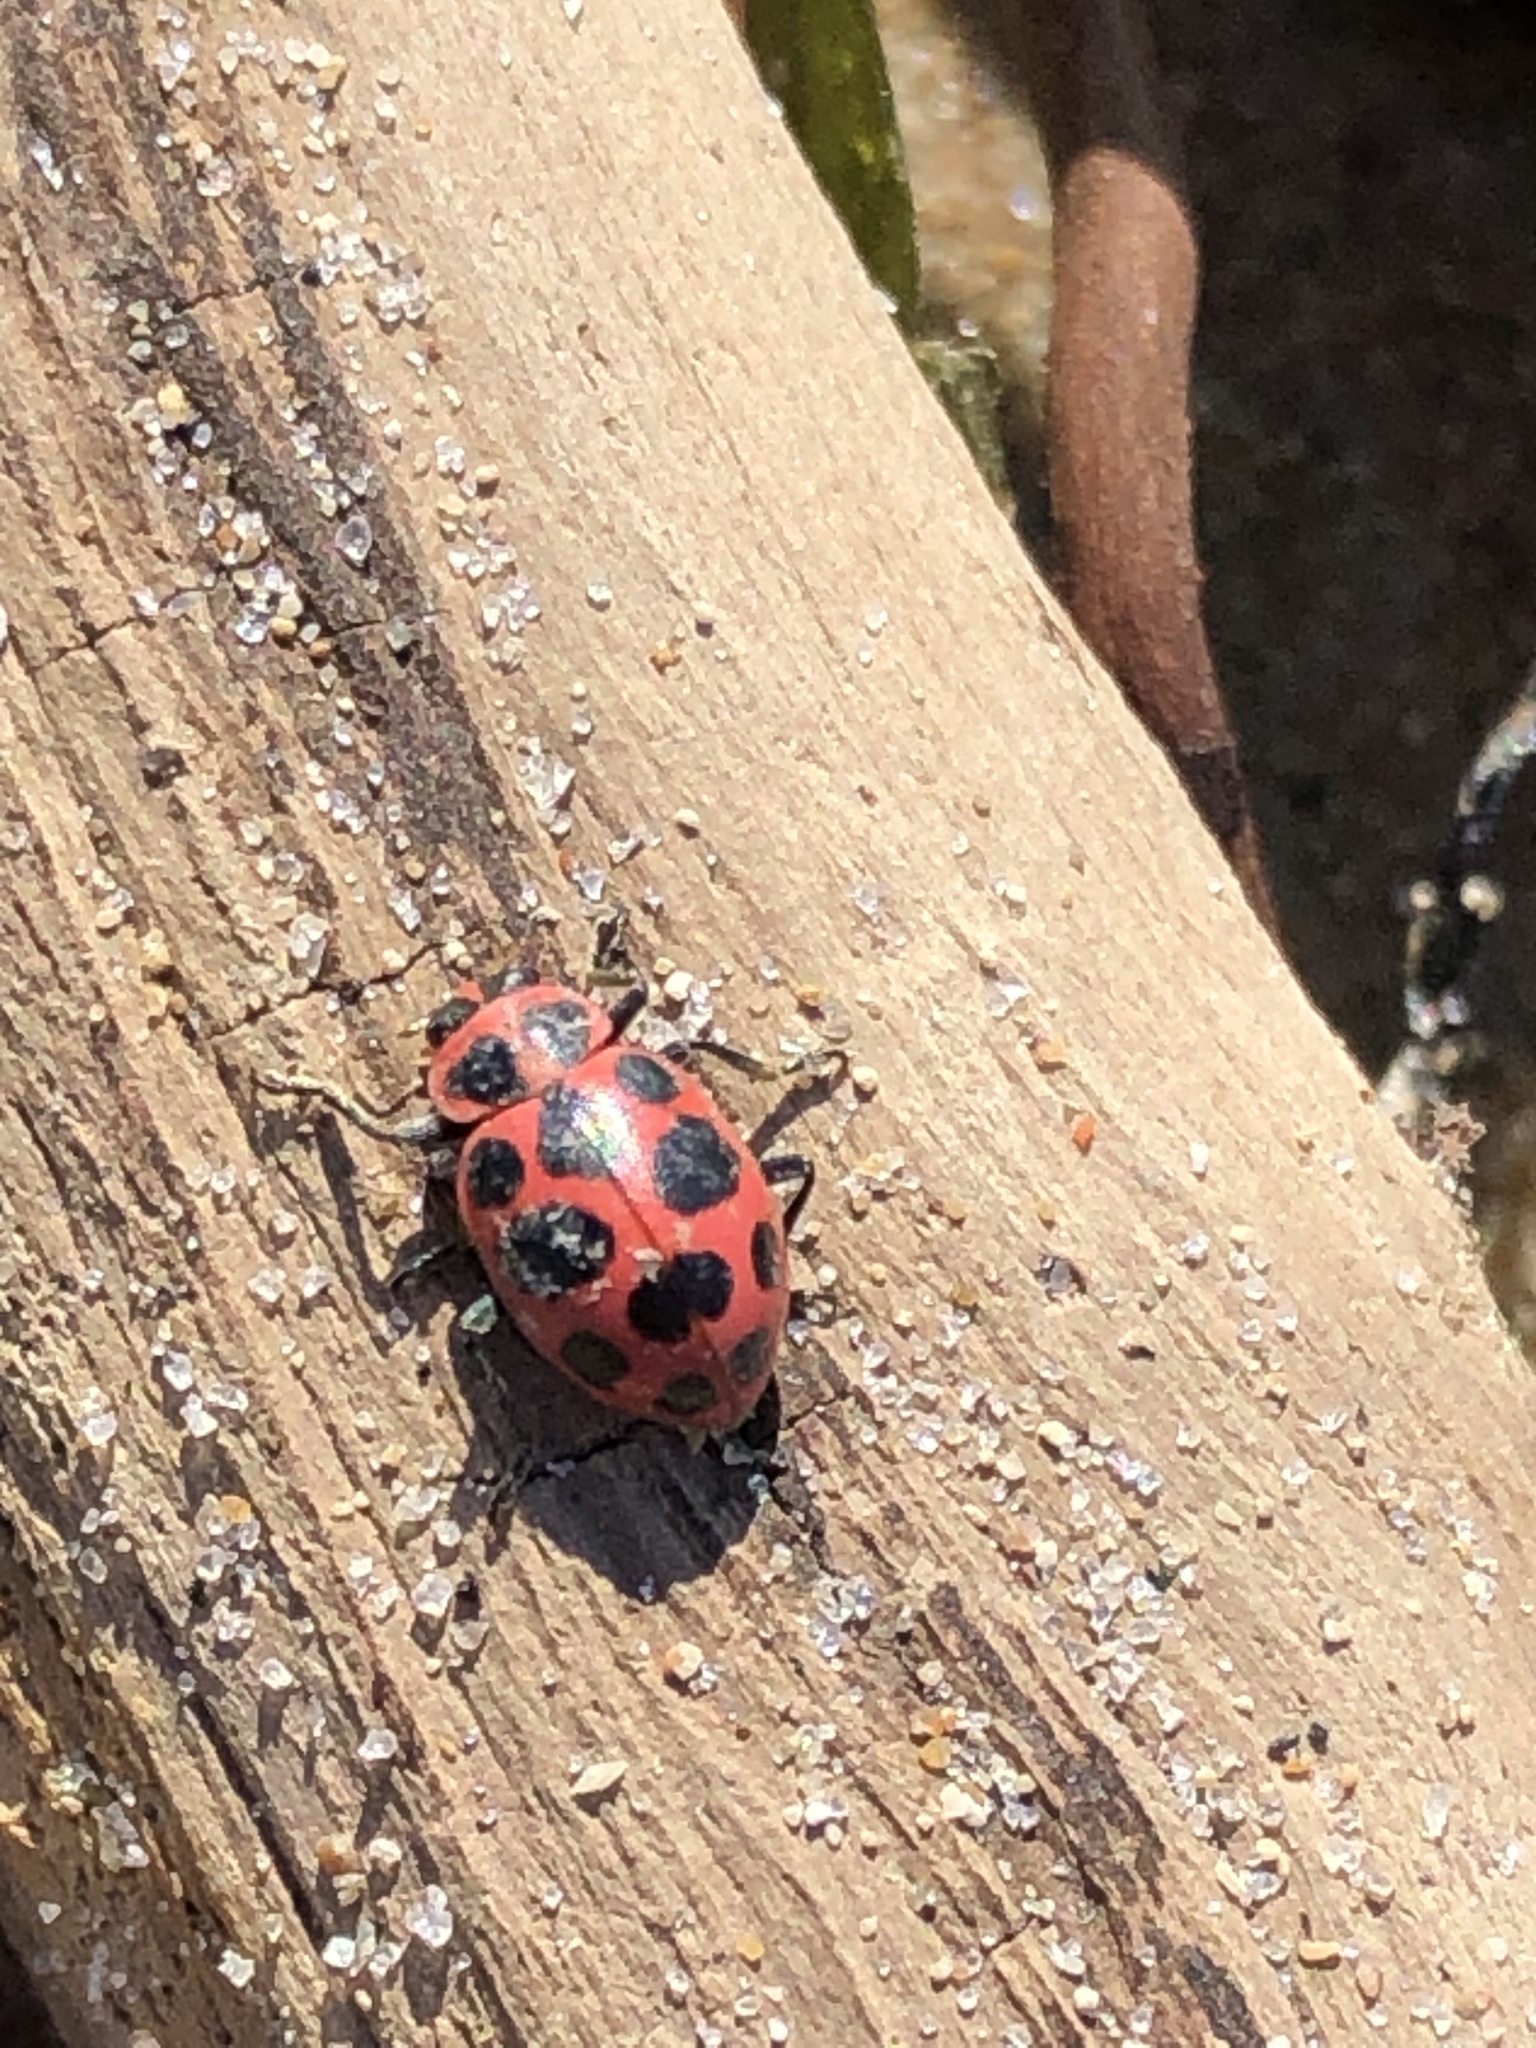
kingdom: Animalia
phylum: Arthropoda
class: Insecta
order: Coleoptera
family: Coccinellidae
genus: Coleomegilla
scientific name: Coleomegilla maculata
